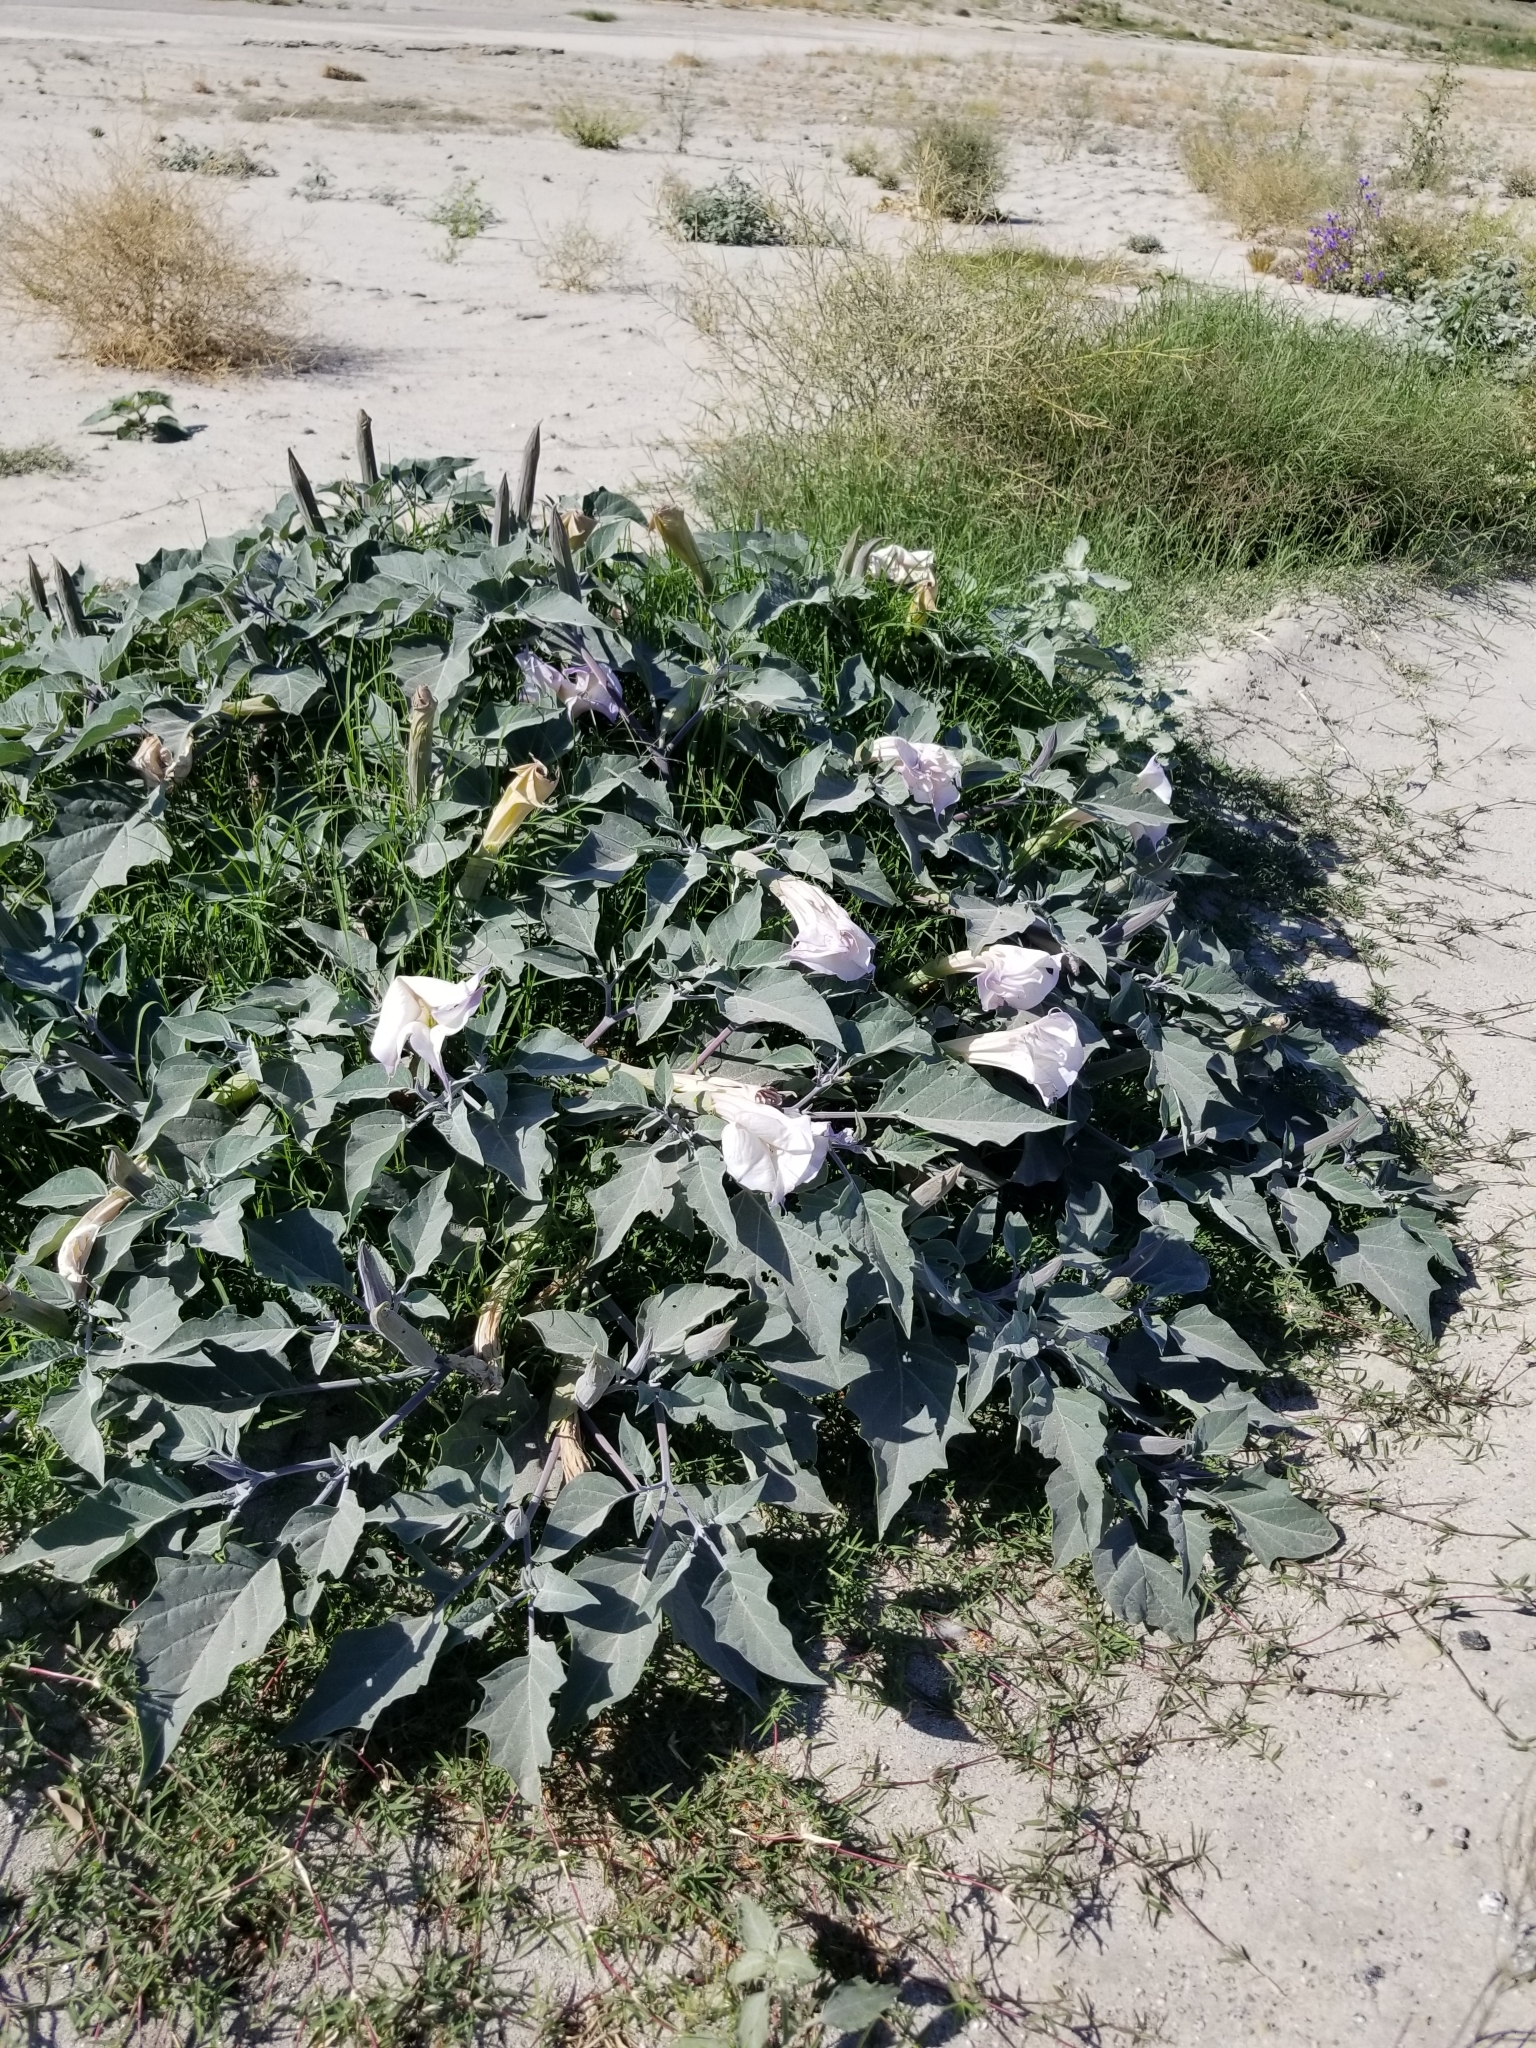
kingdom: Plantae
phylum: Tracheophyta
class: Magnoliopsida
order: Solanales
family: Solanaceae
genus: Datura
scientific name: Datura wrightii
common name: Sacred thorn-apple
